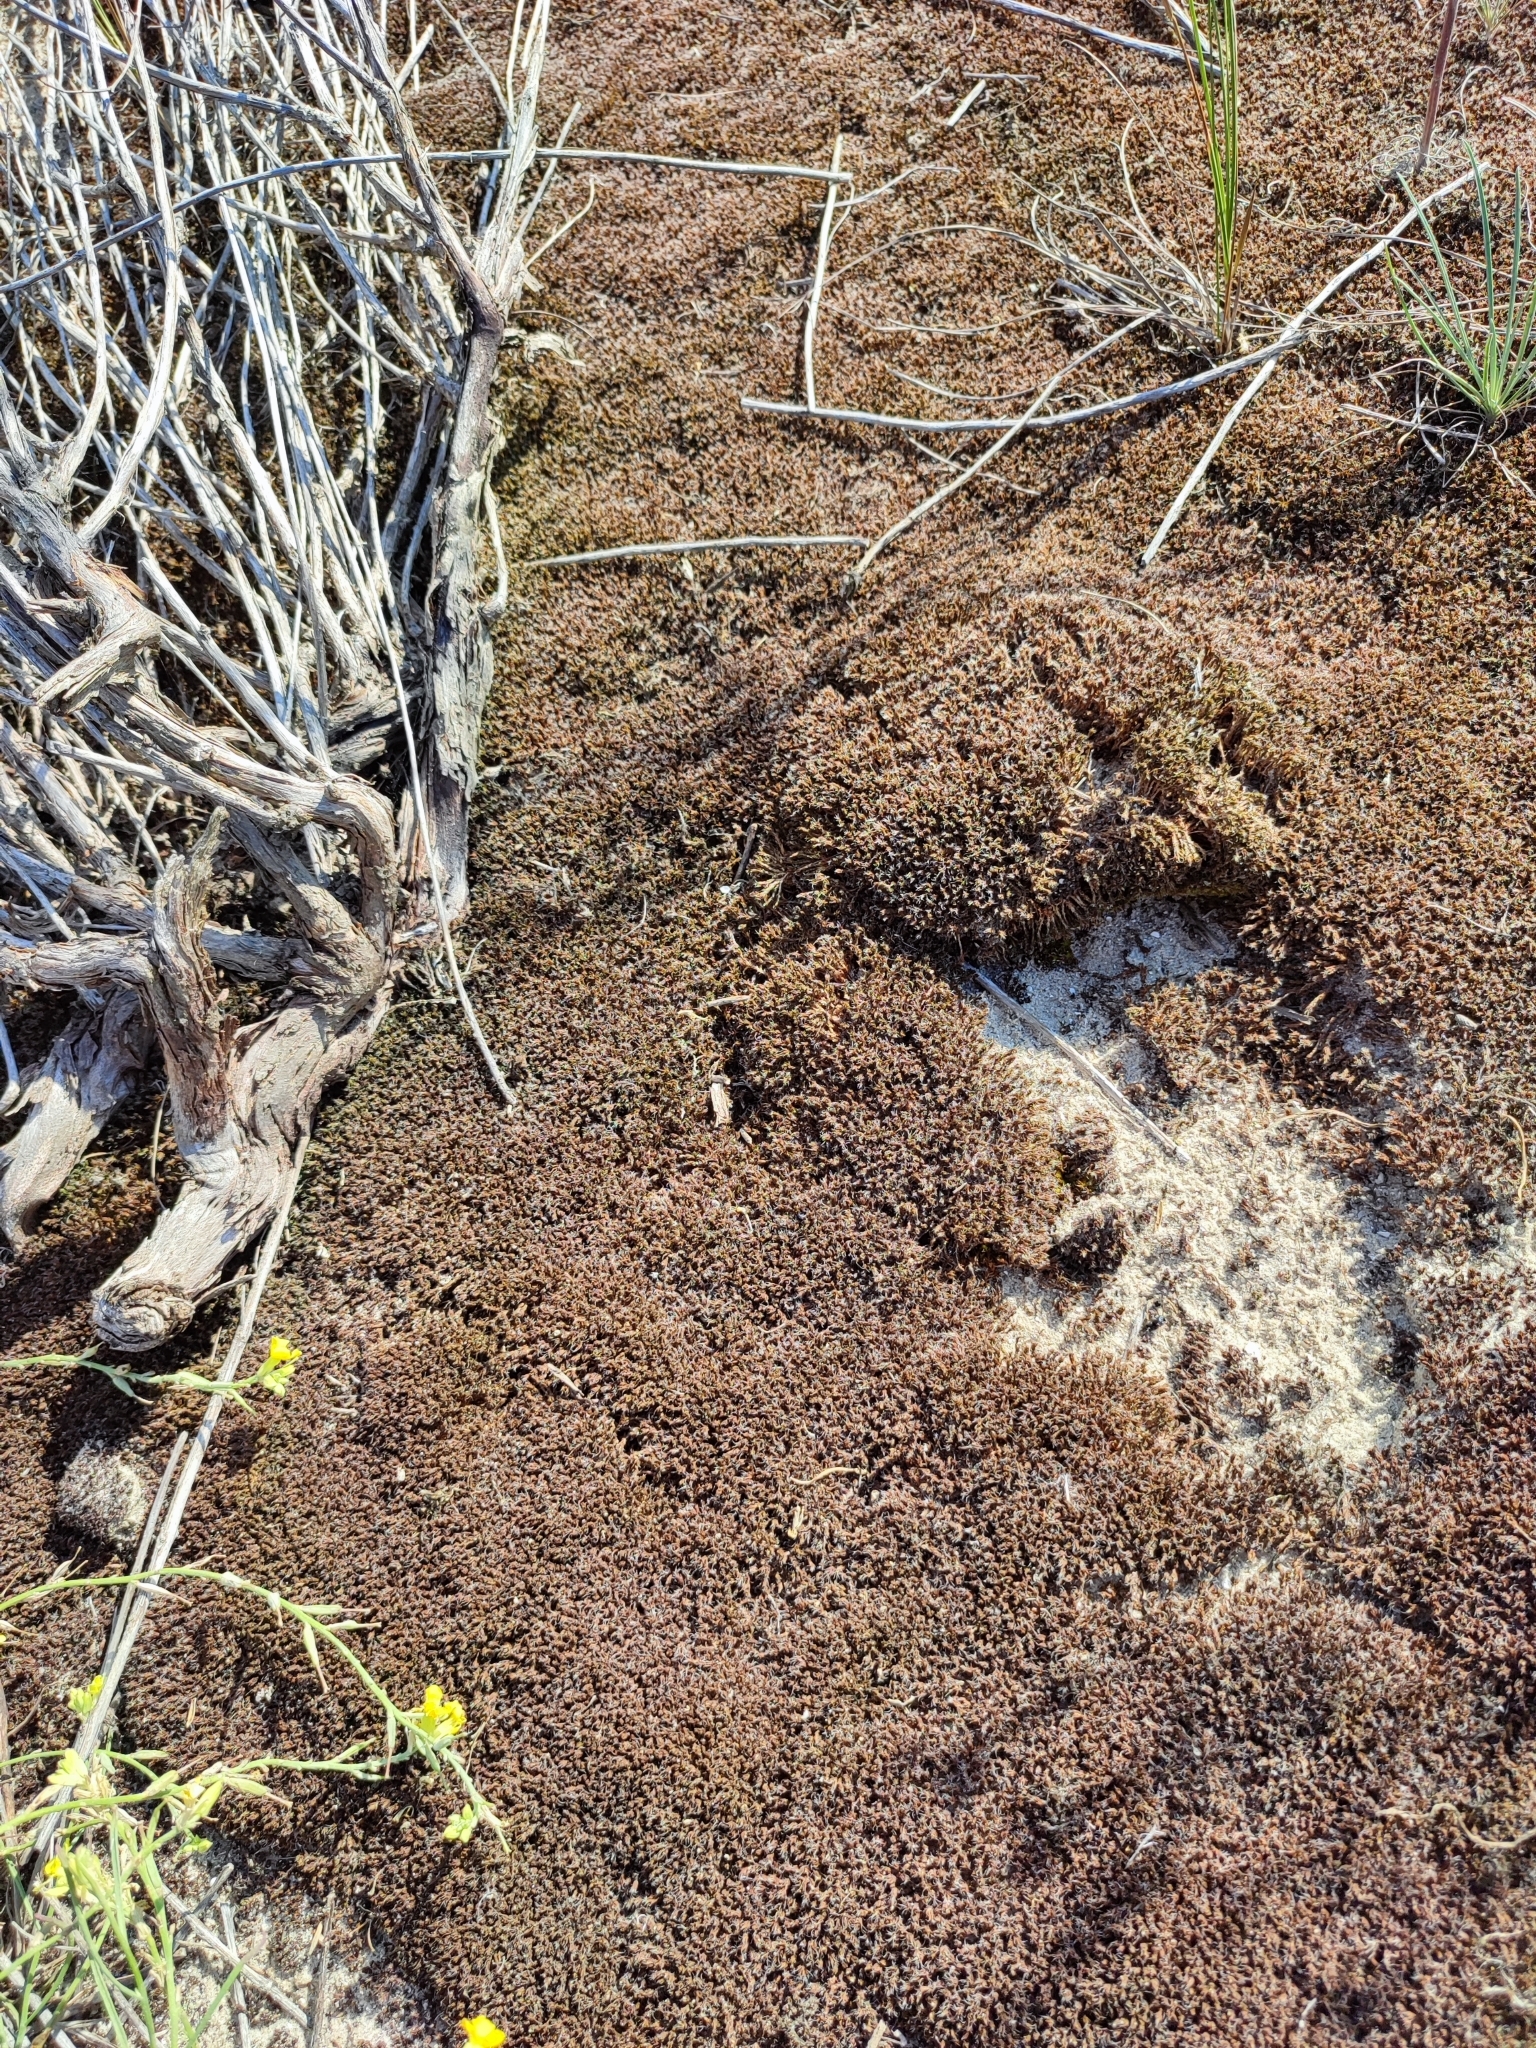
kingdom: Plantae
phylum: Bryophyta
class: Bryopsida
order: Pottiales
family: Pottiaceae
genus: Syntrichia
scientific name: Syntrichia ruralis
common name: Sidewalk screw moss
